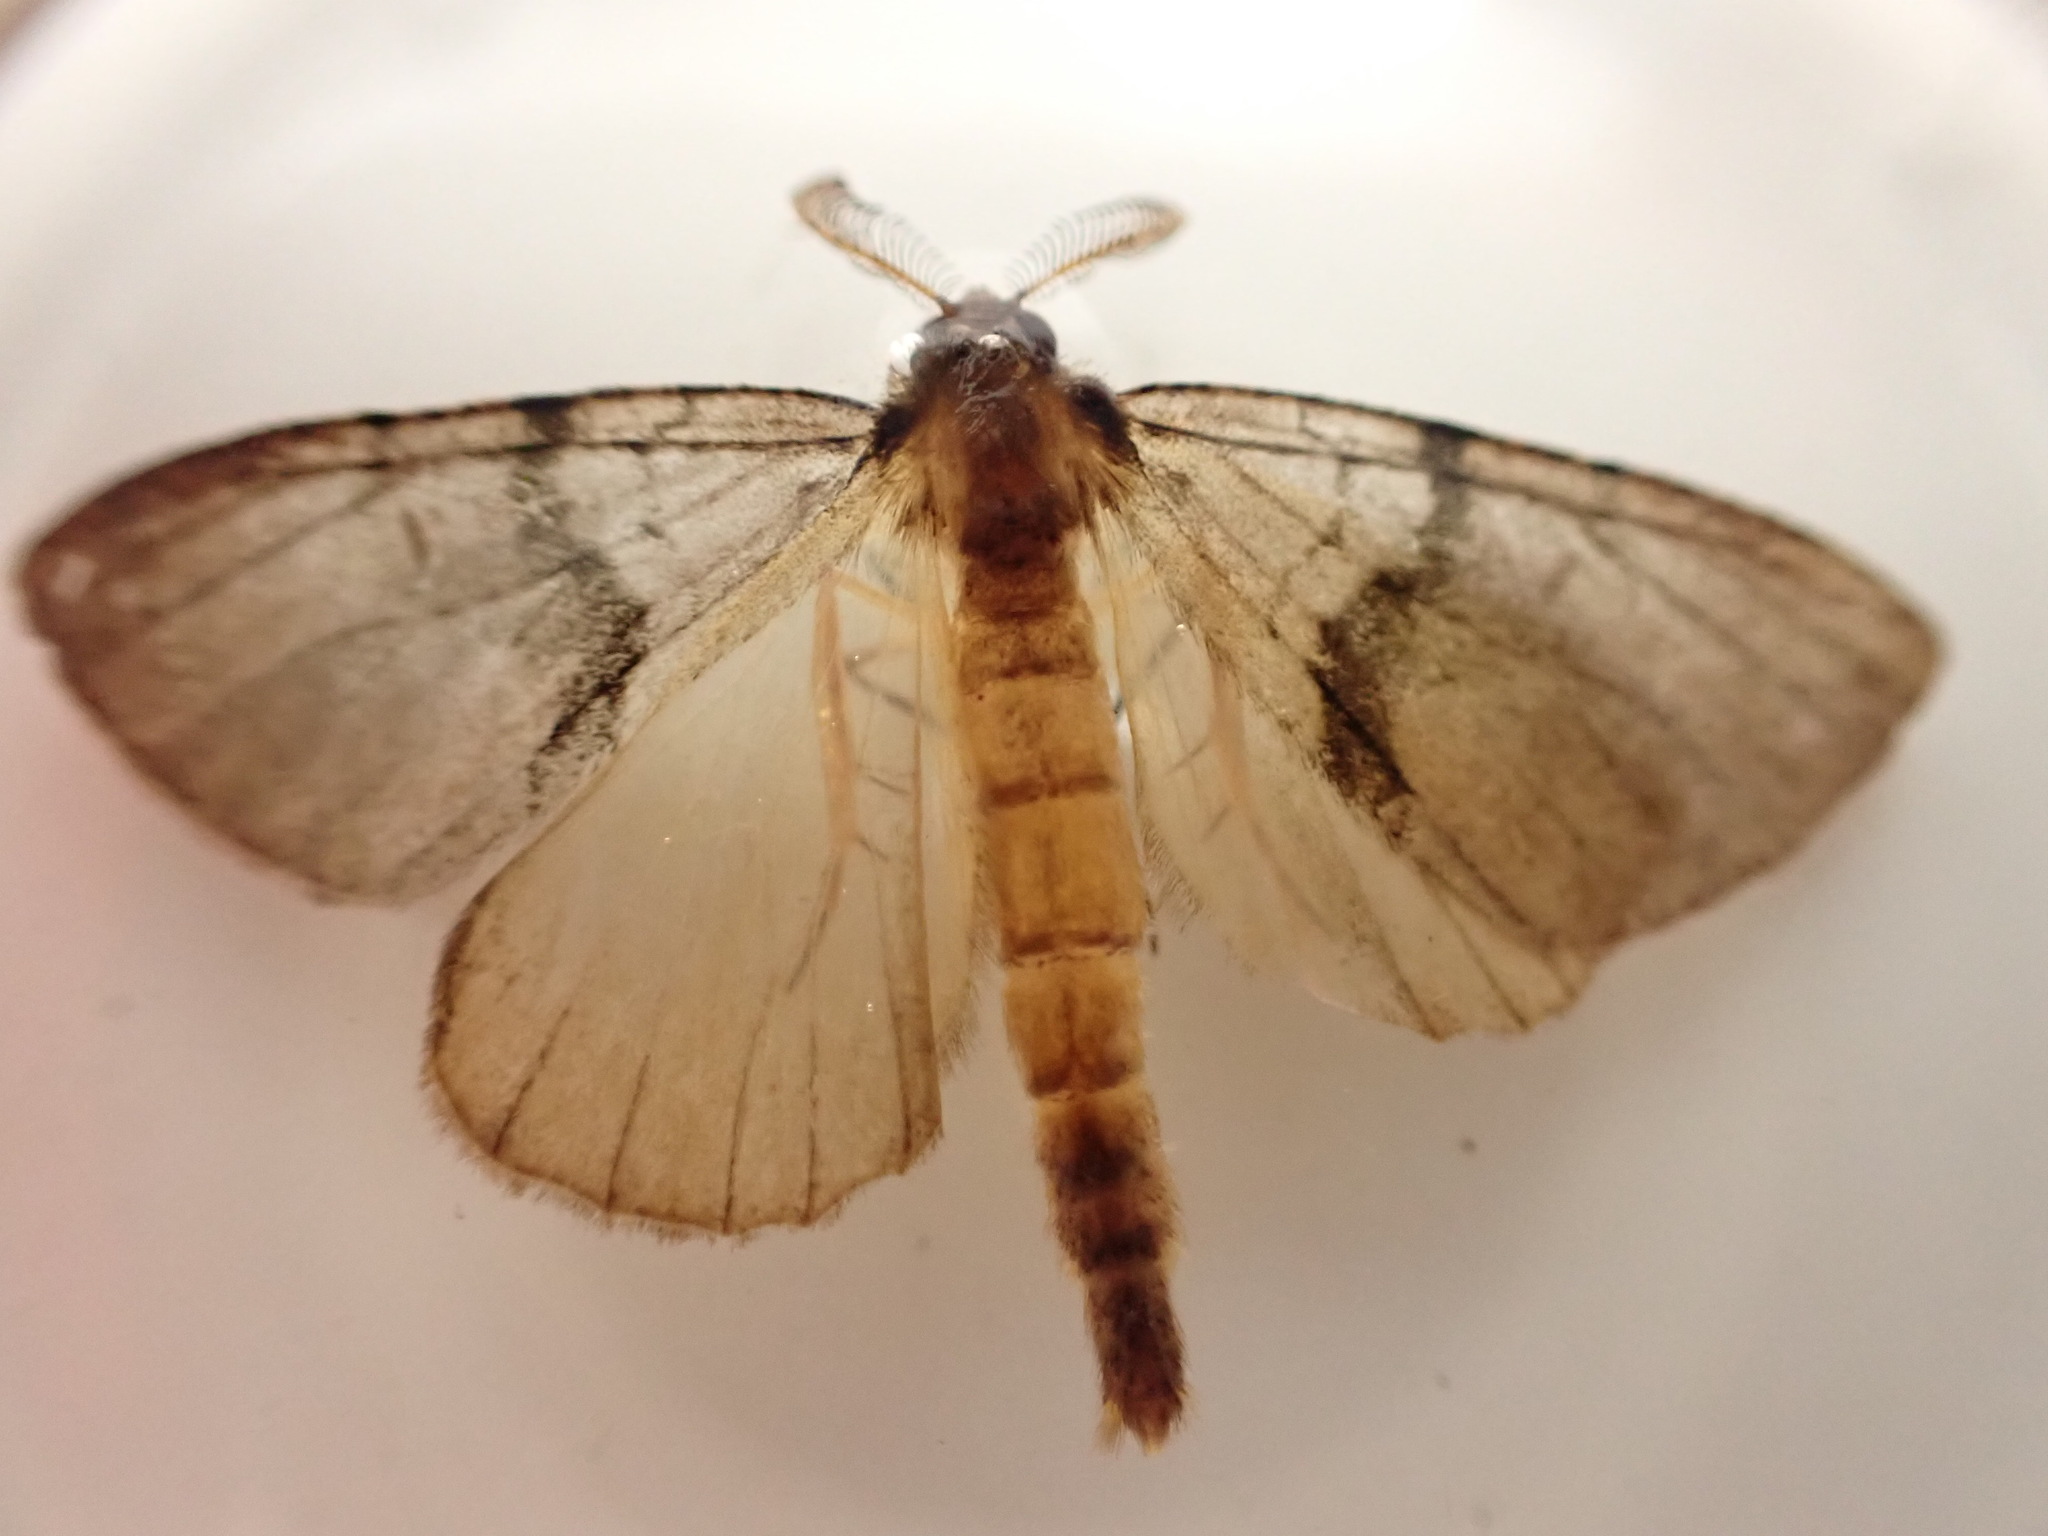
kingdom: Animalia
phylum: Arthropoda
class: Insecta
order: Lepidoptera
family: Geometridae
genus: Pseudocoremia
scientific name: Pseudocoremia suavis
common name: Common forest looper
